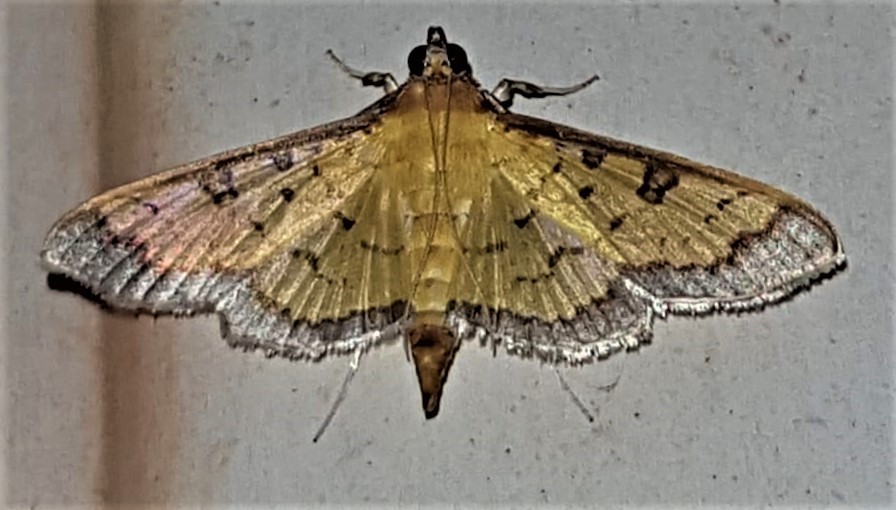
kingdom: Animalia
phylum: Arthropoda
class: Insecta
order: Lepidoptera
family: Crambidae
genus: Ategumia
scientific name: Ategumia matutinalis
